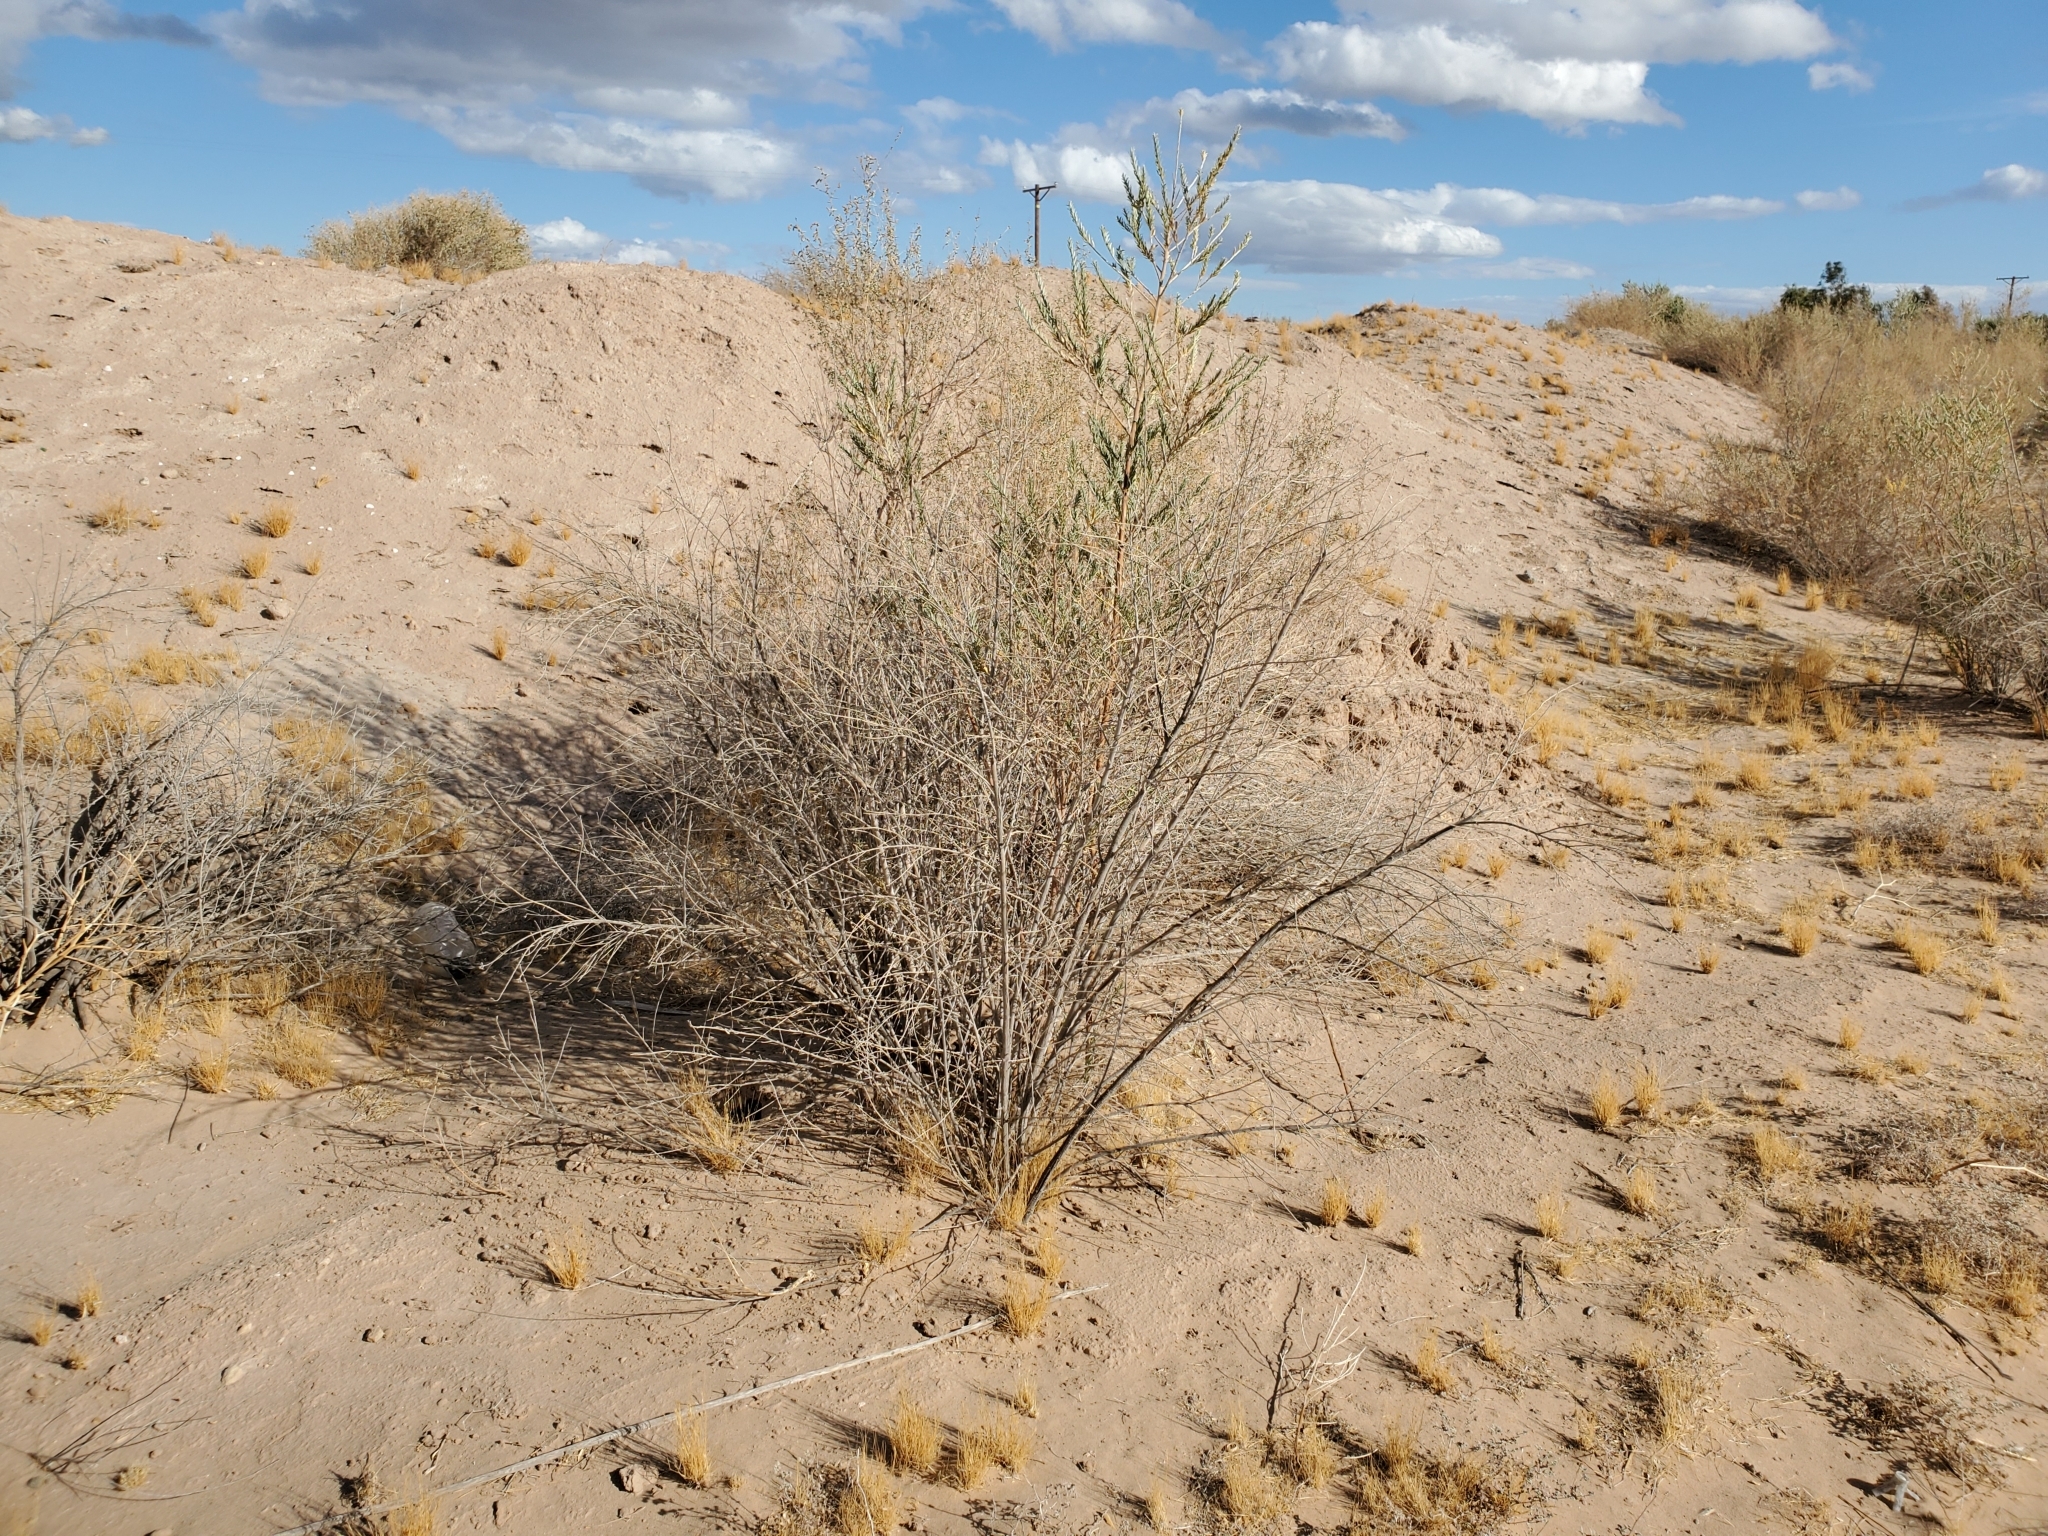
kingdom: Plantae
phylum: Tracheophyta
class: Magnoliopsida
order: Asterales
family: Asteraceae
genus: Pluchea
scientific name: Pluchea sericea
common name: Arrow-weed
